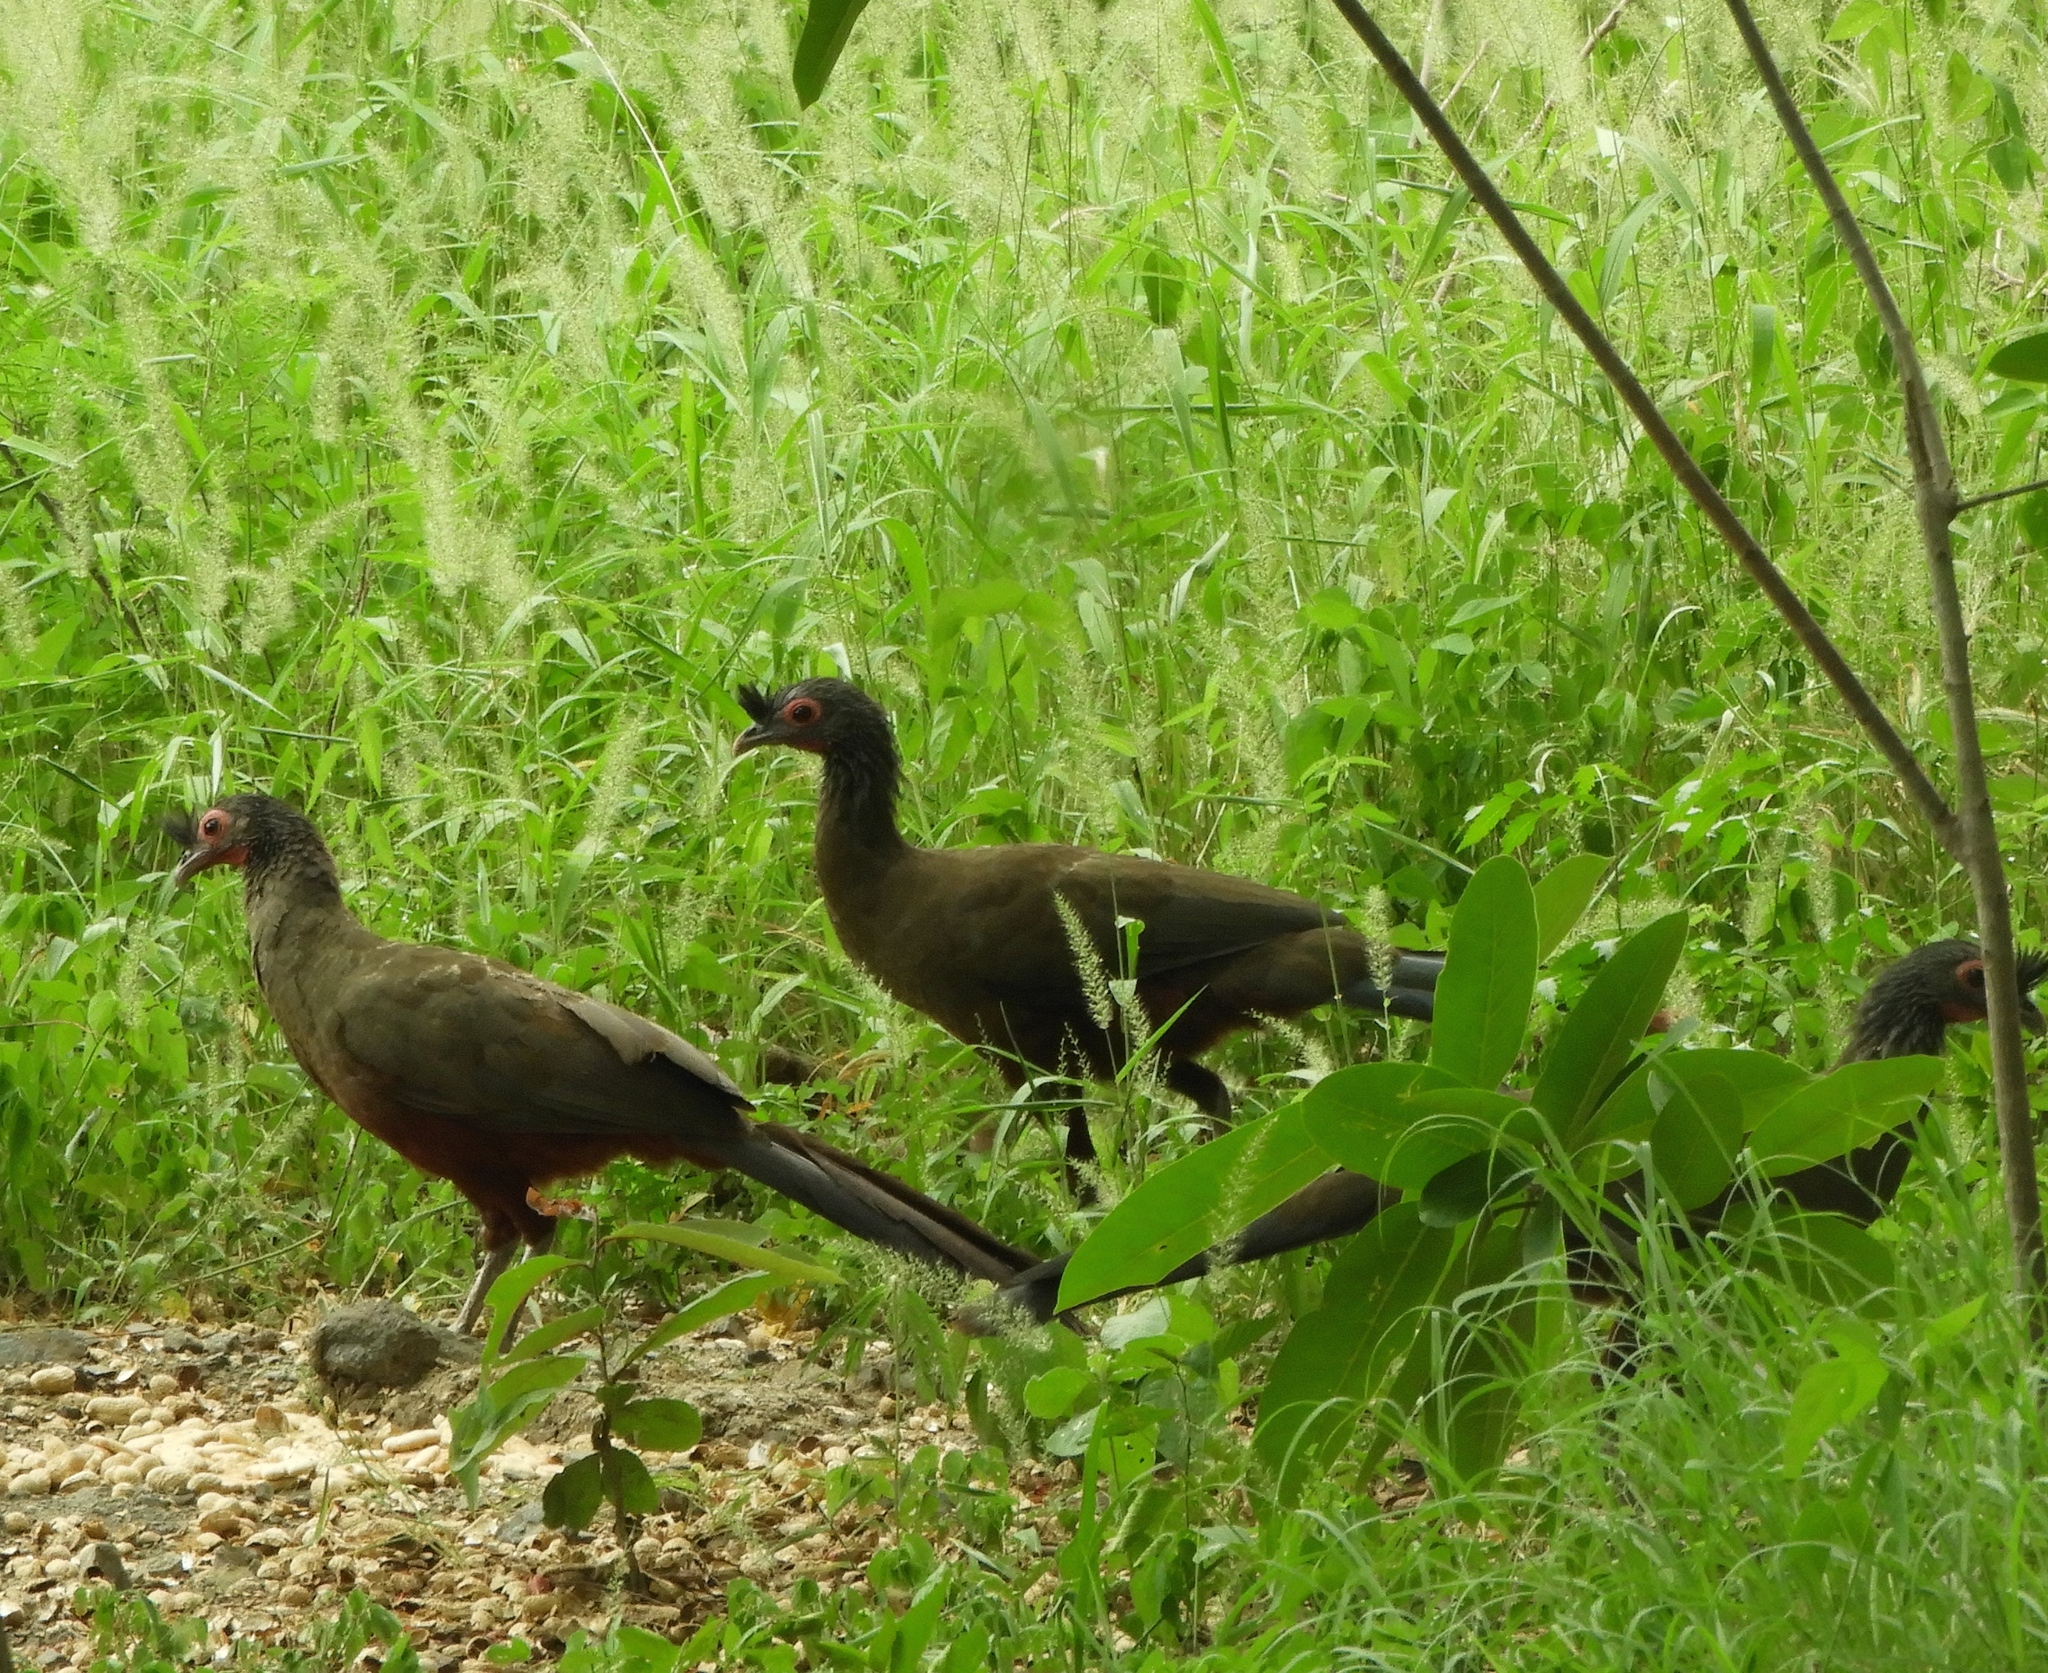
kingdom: Animalia
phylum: Chordata
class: Aves
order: Galliformes
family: Cracidae
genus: Ortalis
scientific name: Ortalis wagleri
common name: Rufous-bellied chachalaca
